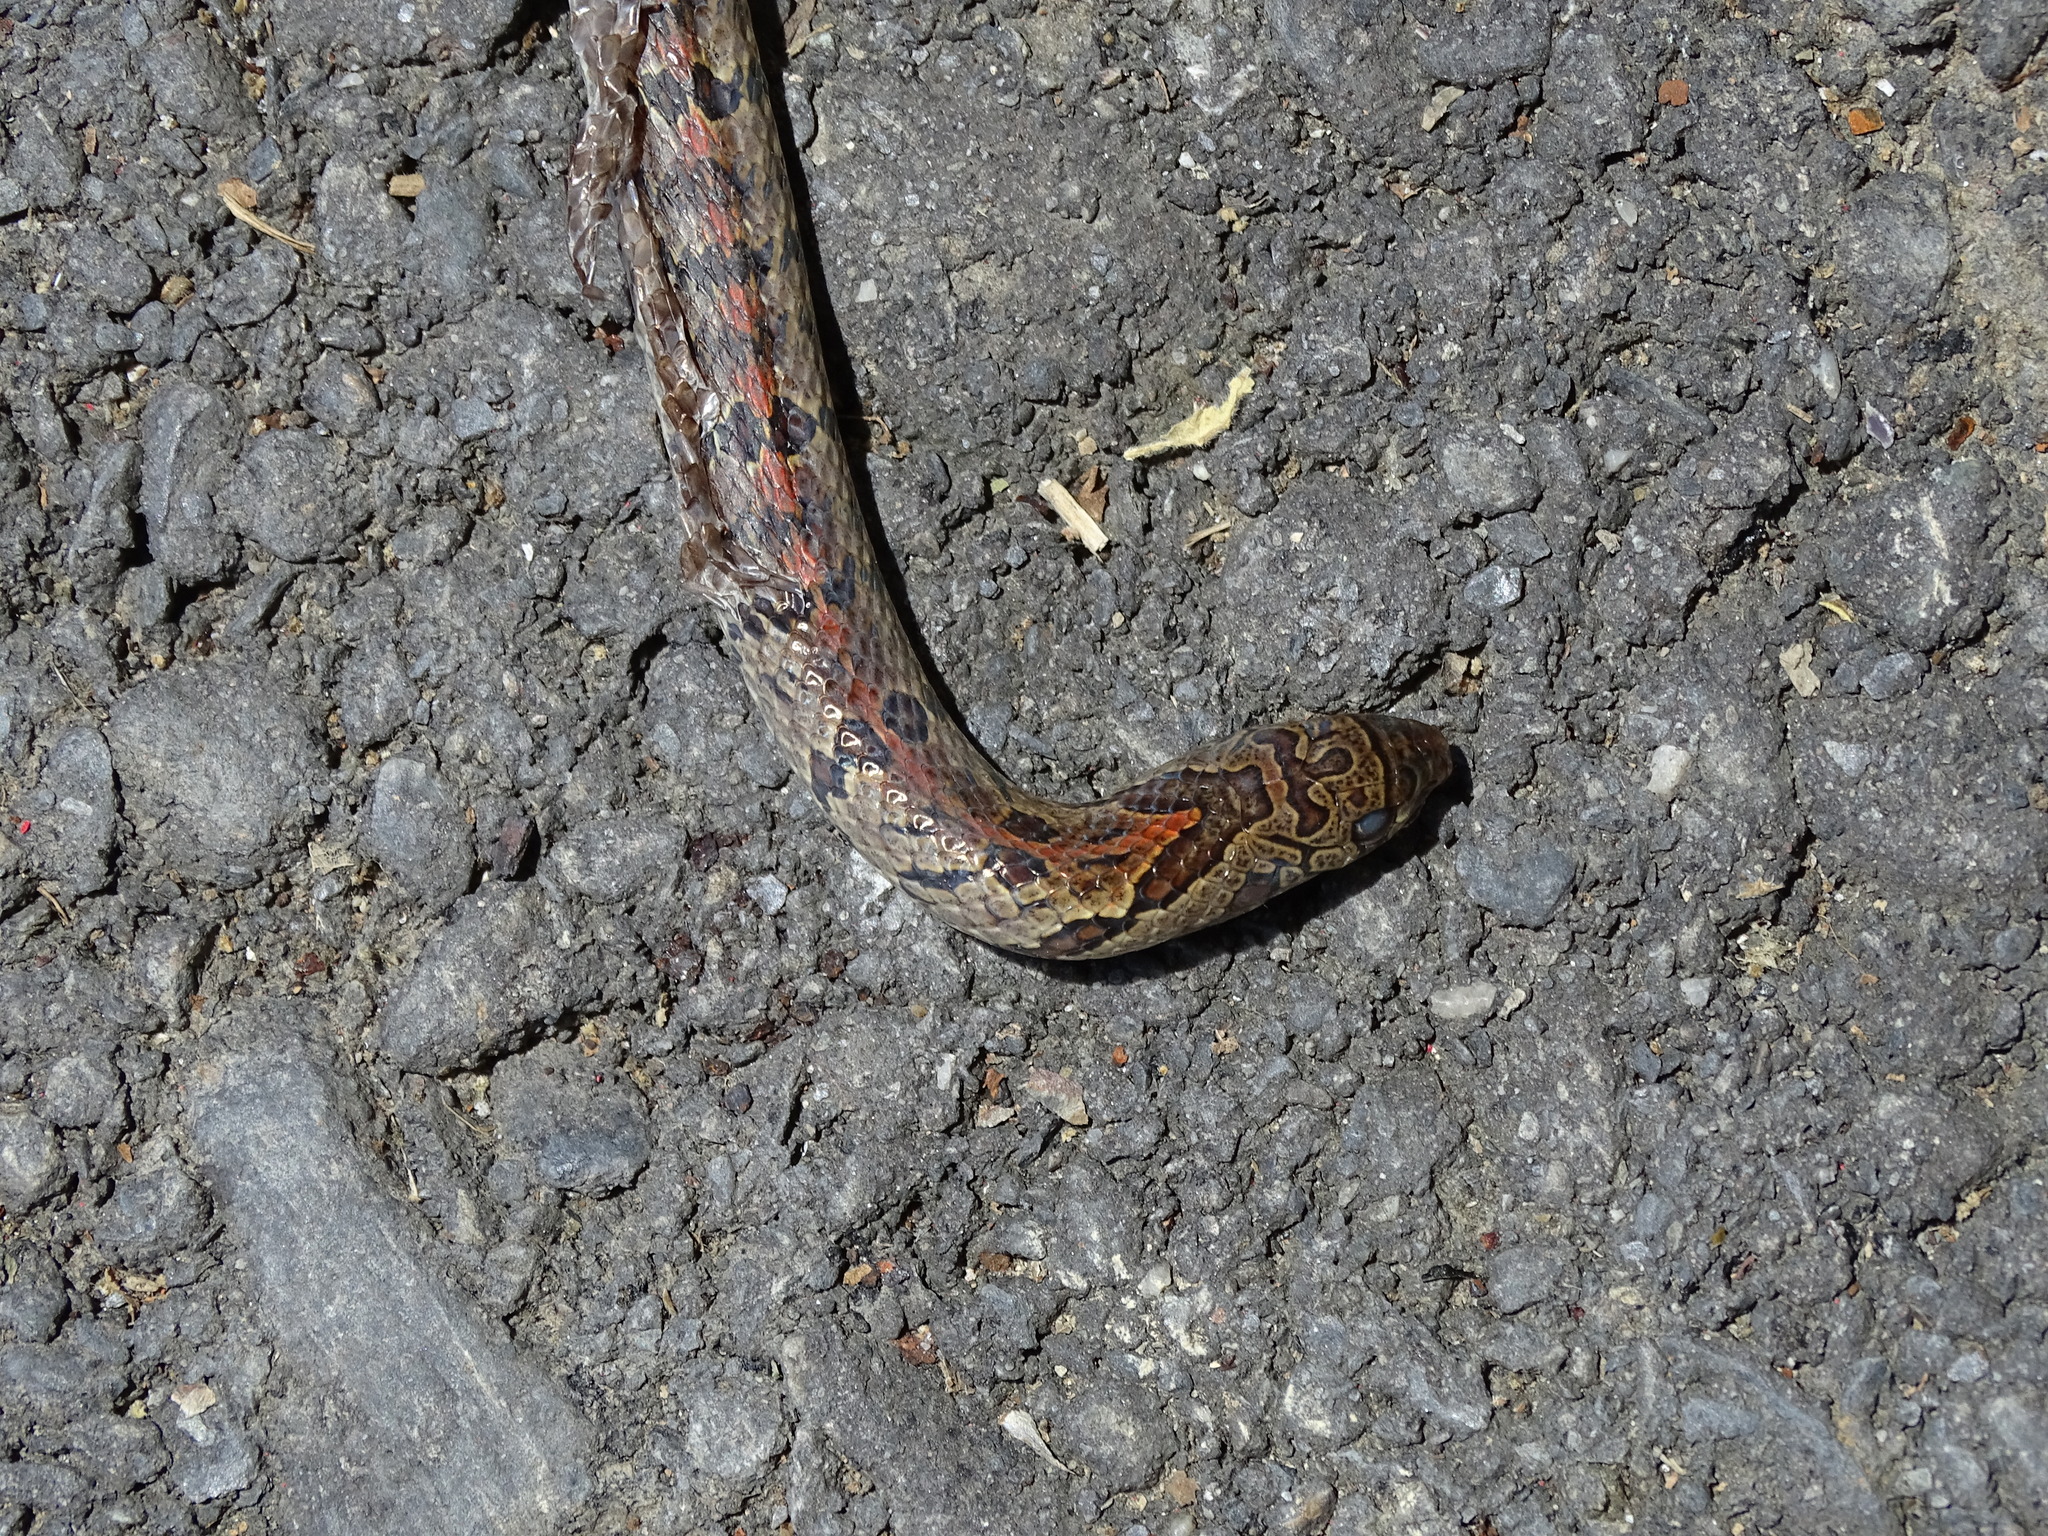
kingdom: Animalia
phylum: Chordata
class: Squamata
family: Colubridae
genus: Oligodon
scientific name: Oligodon formosanus
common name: Formosa kukri snake
